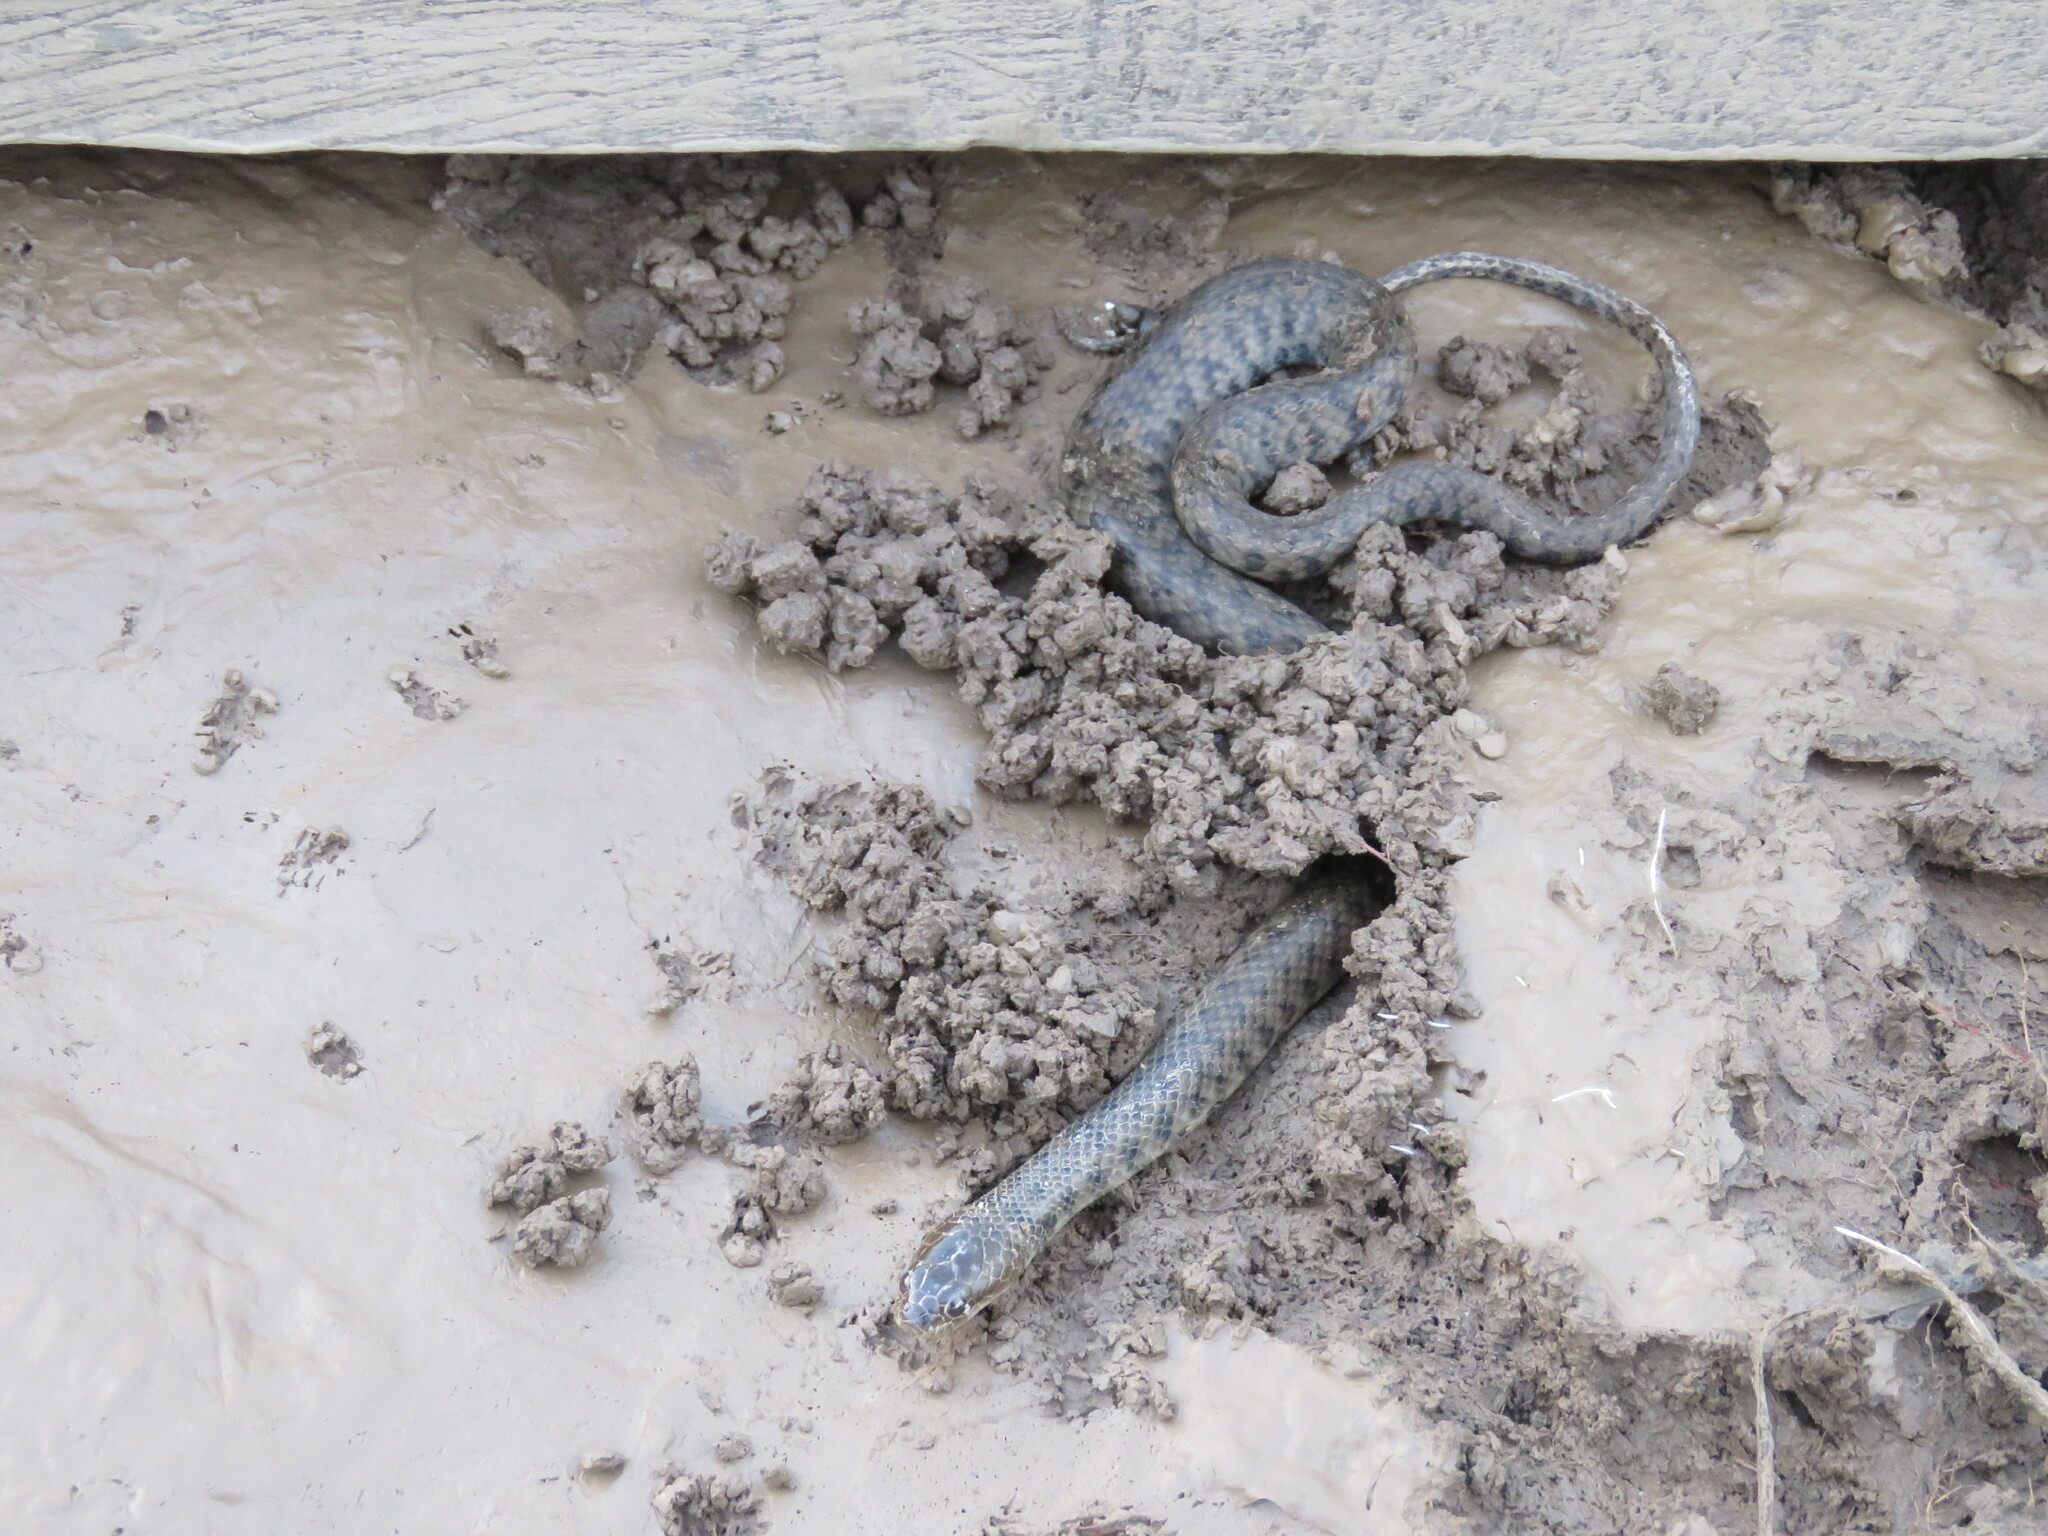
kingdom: Animalia
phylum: Chordata
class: Squamata
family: Colubridae
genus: Helicops
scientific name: Helicops leopardinus
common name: Leopard keelback
